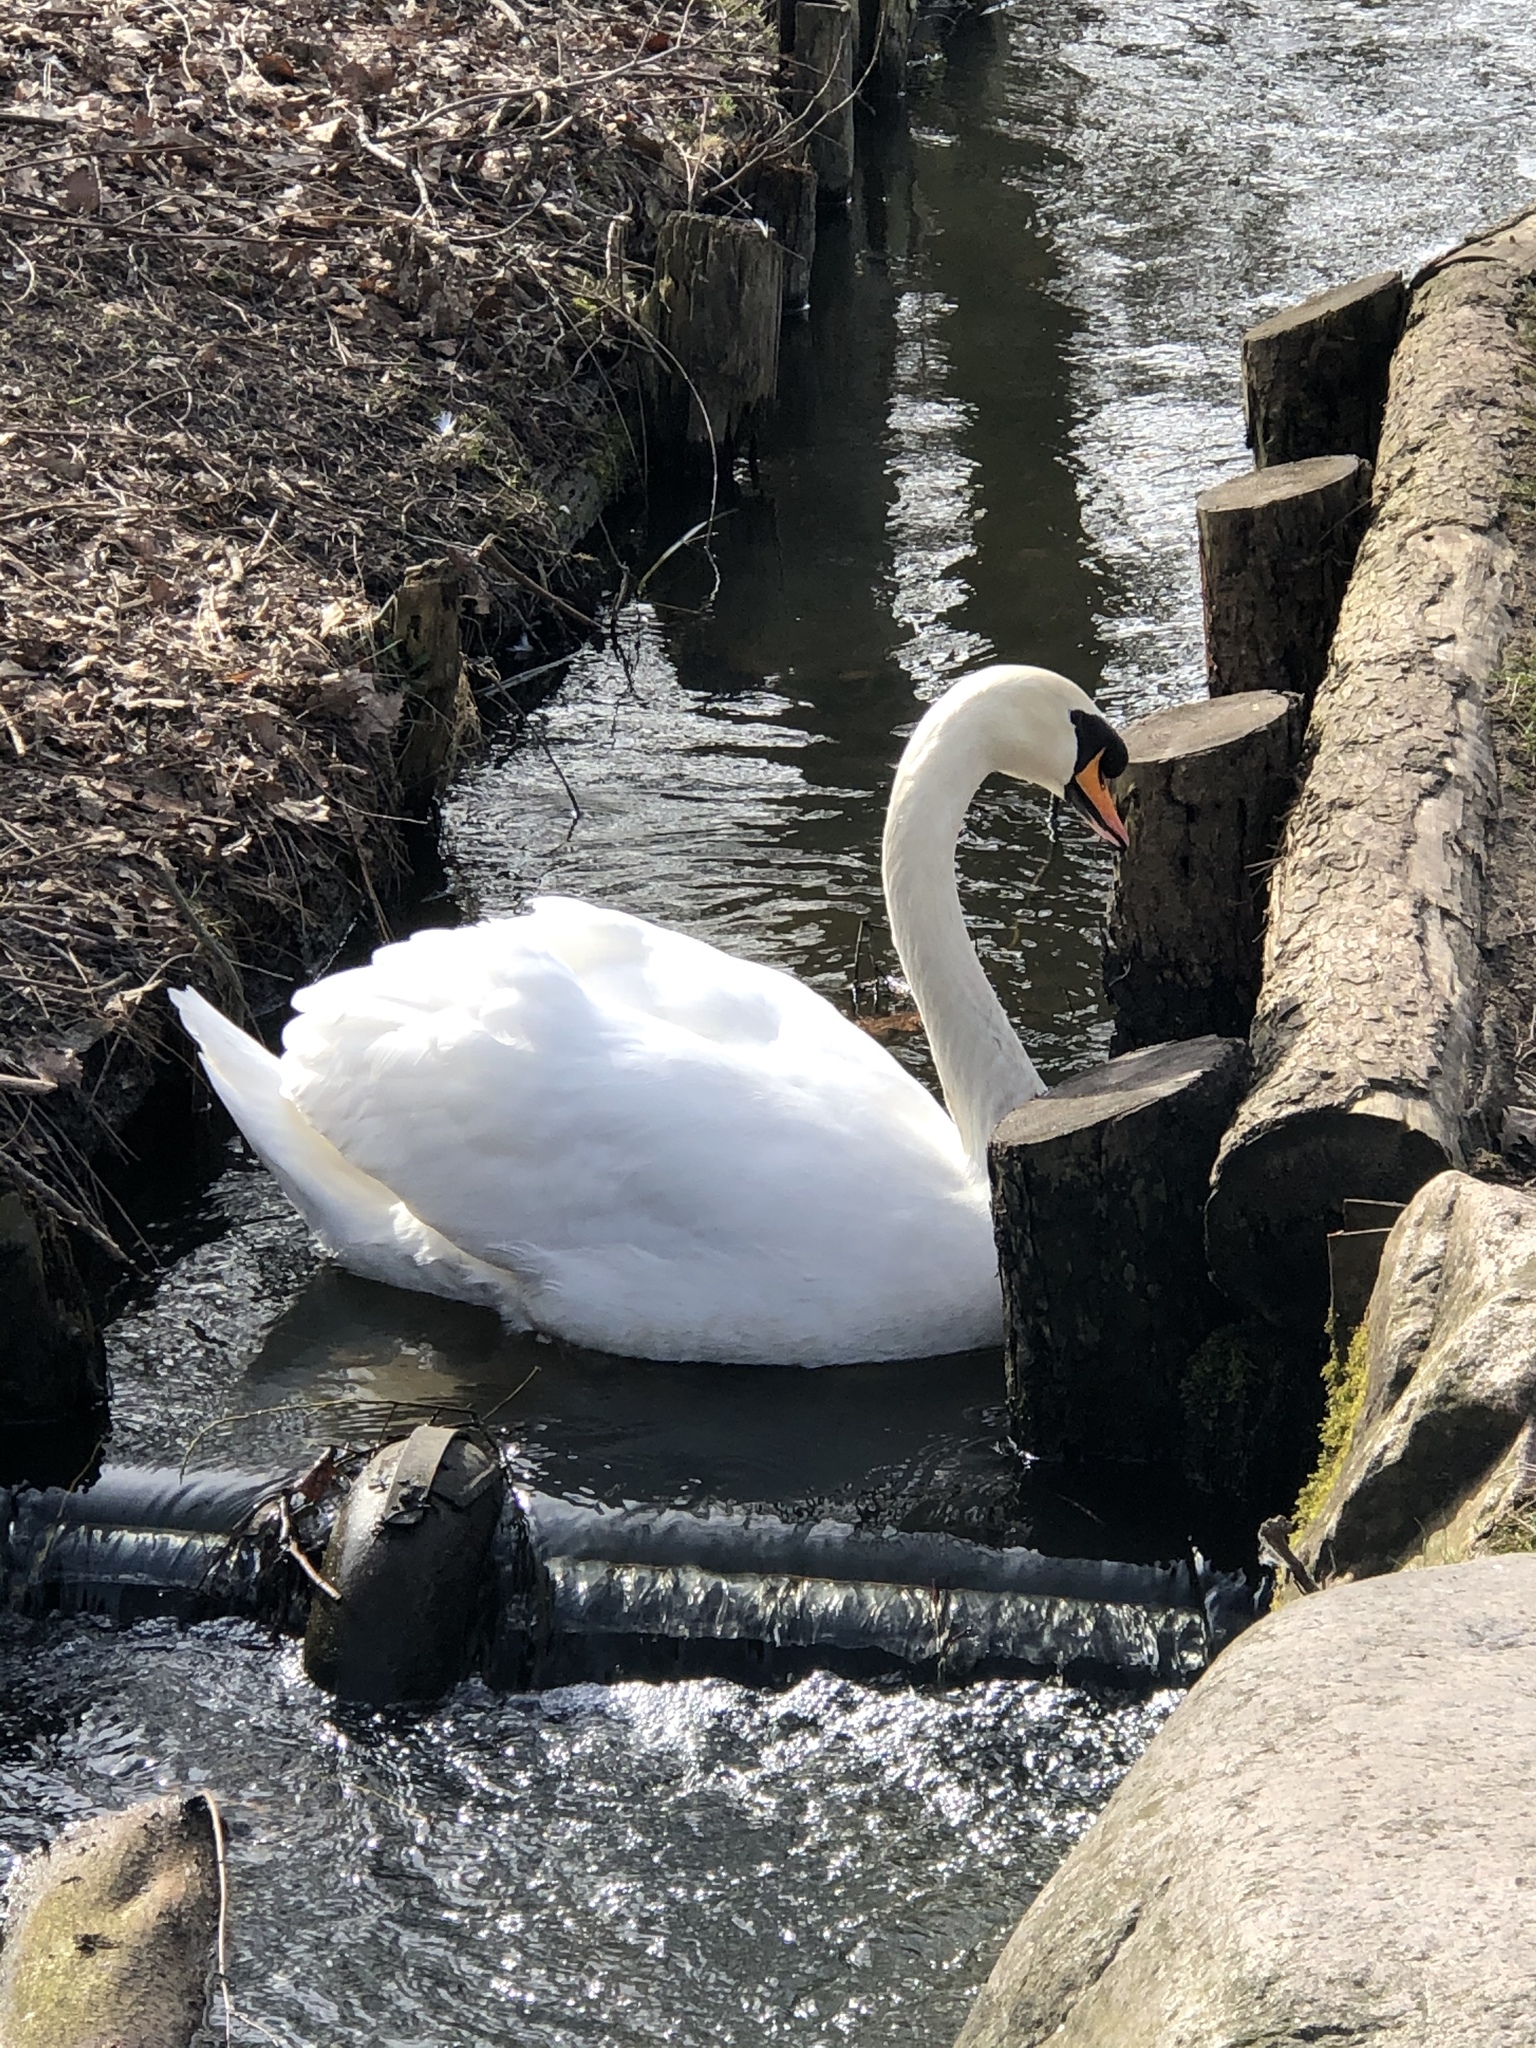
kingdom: Animalia
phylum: Chordata
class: Aves
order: Anseriformes
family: Anatidae
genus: Cygnus
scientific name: Cygnus olor
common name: Mute swan
